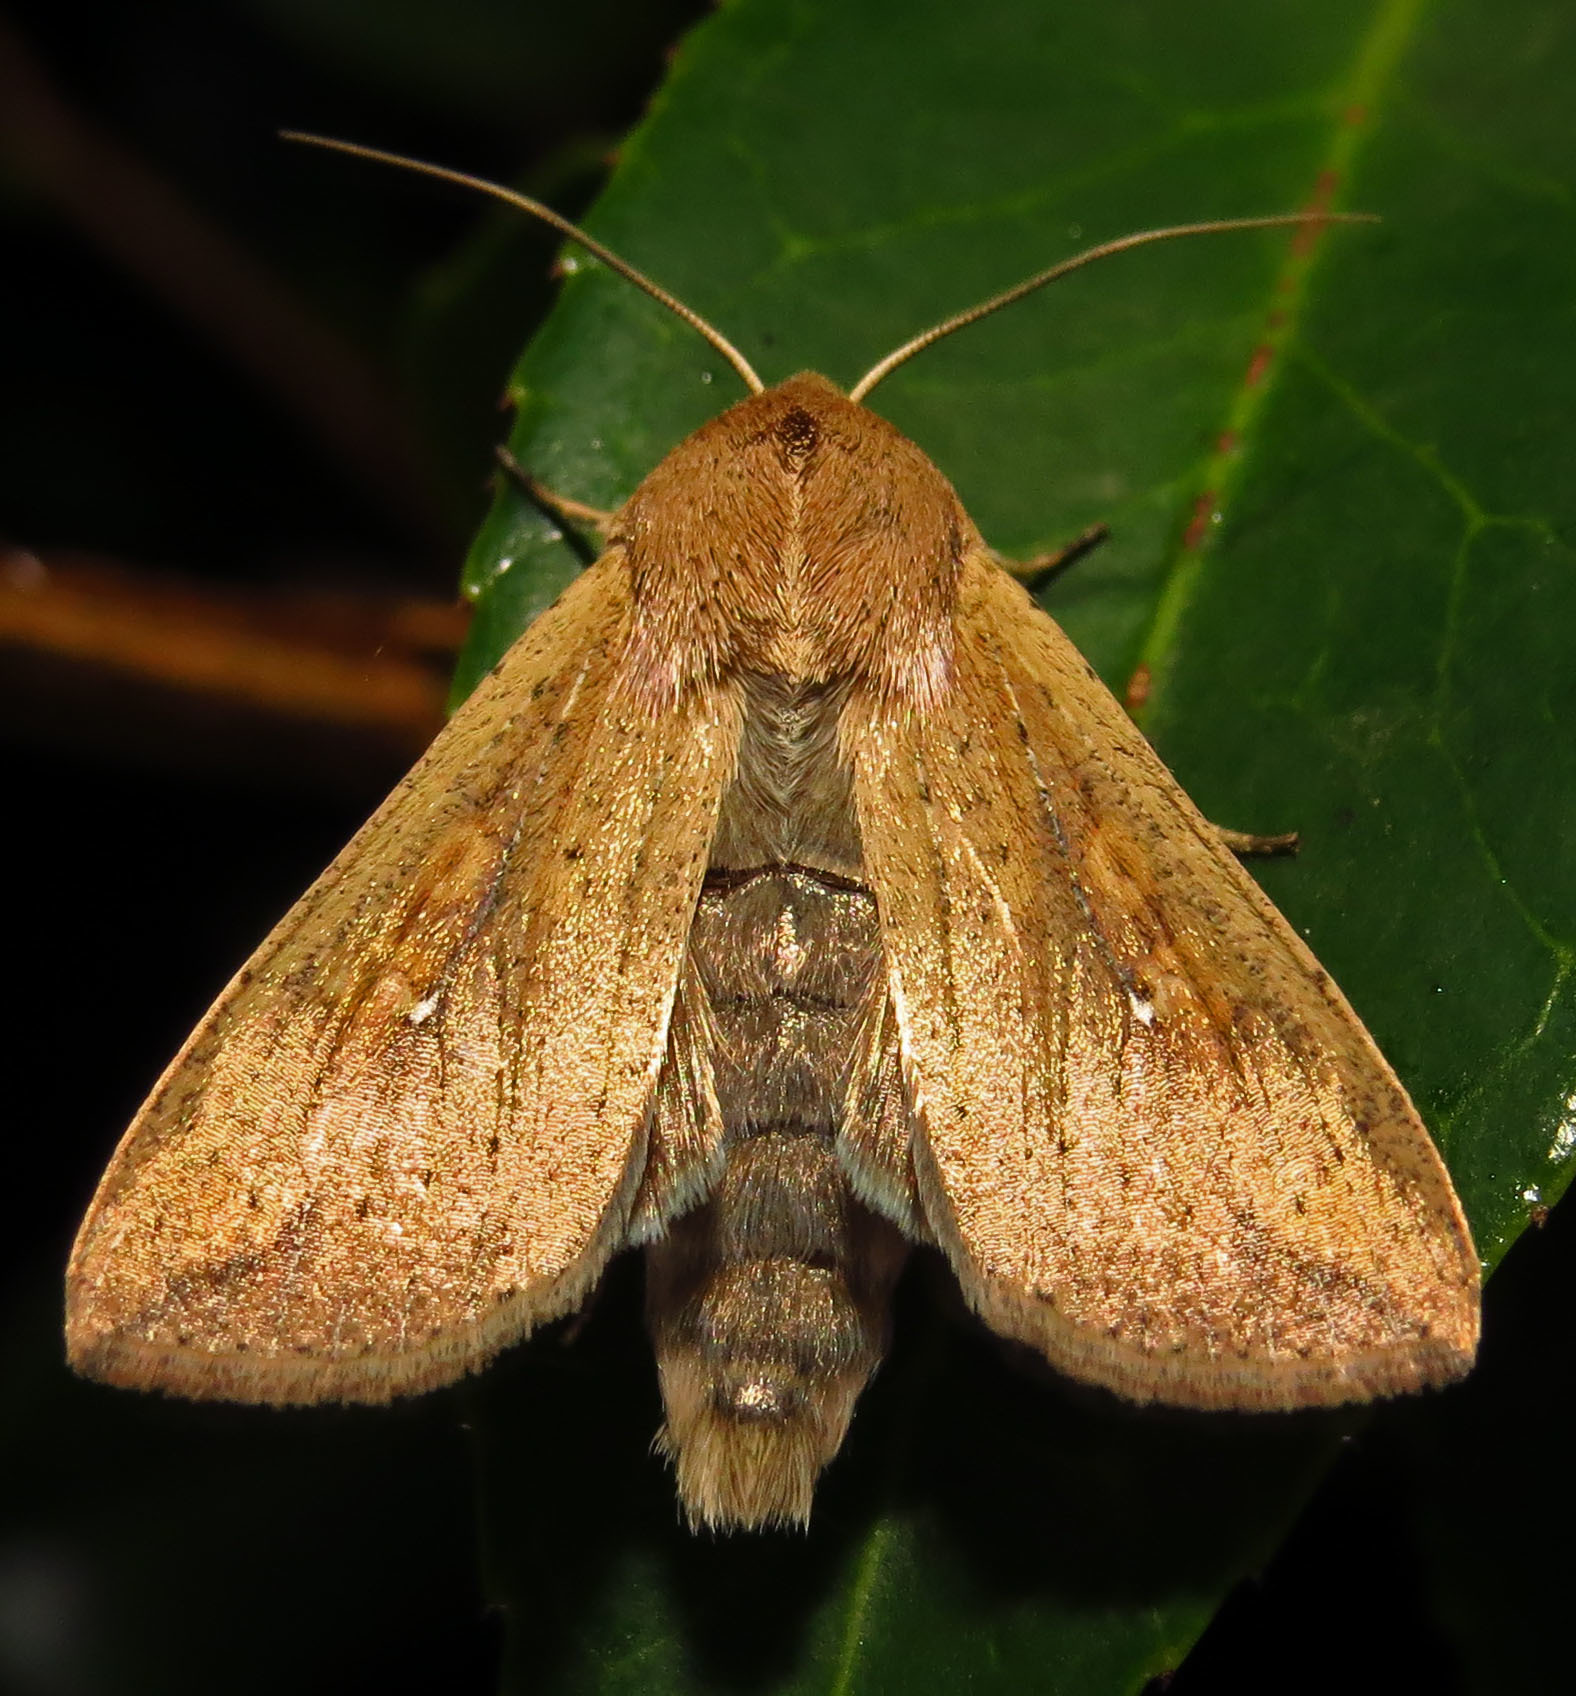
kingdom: Animalia
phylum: Arthropoda
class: Insecta
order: Lepidoptera
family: Noctuidae
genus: Mythimna
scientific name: Mythimna unipuncta
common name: White-speck
